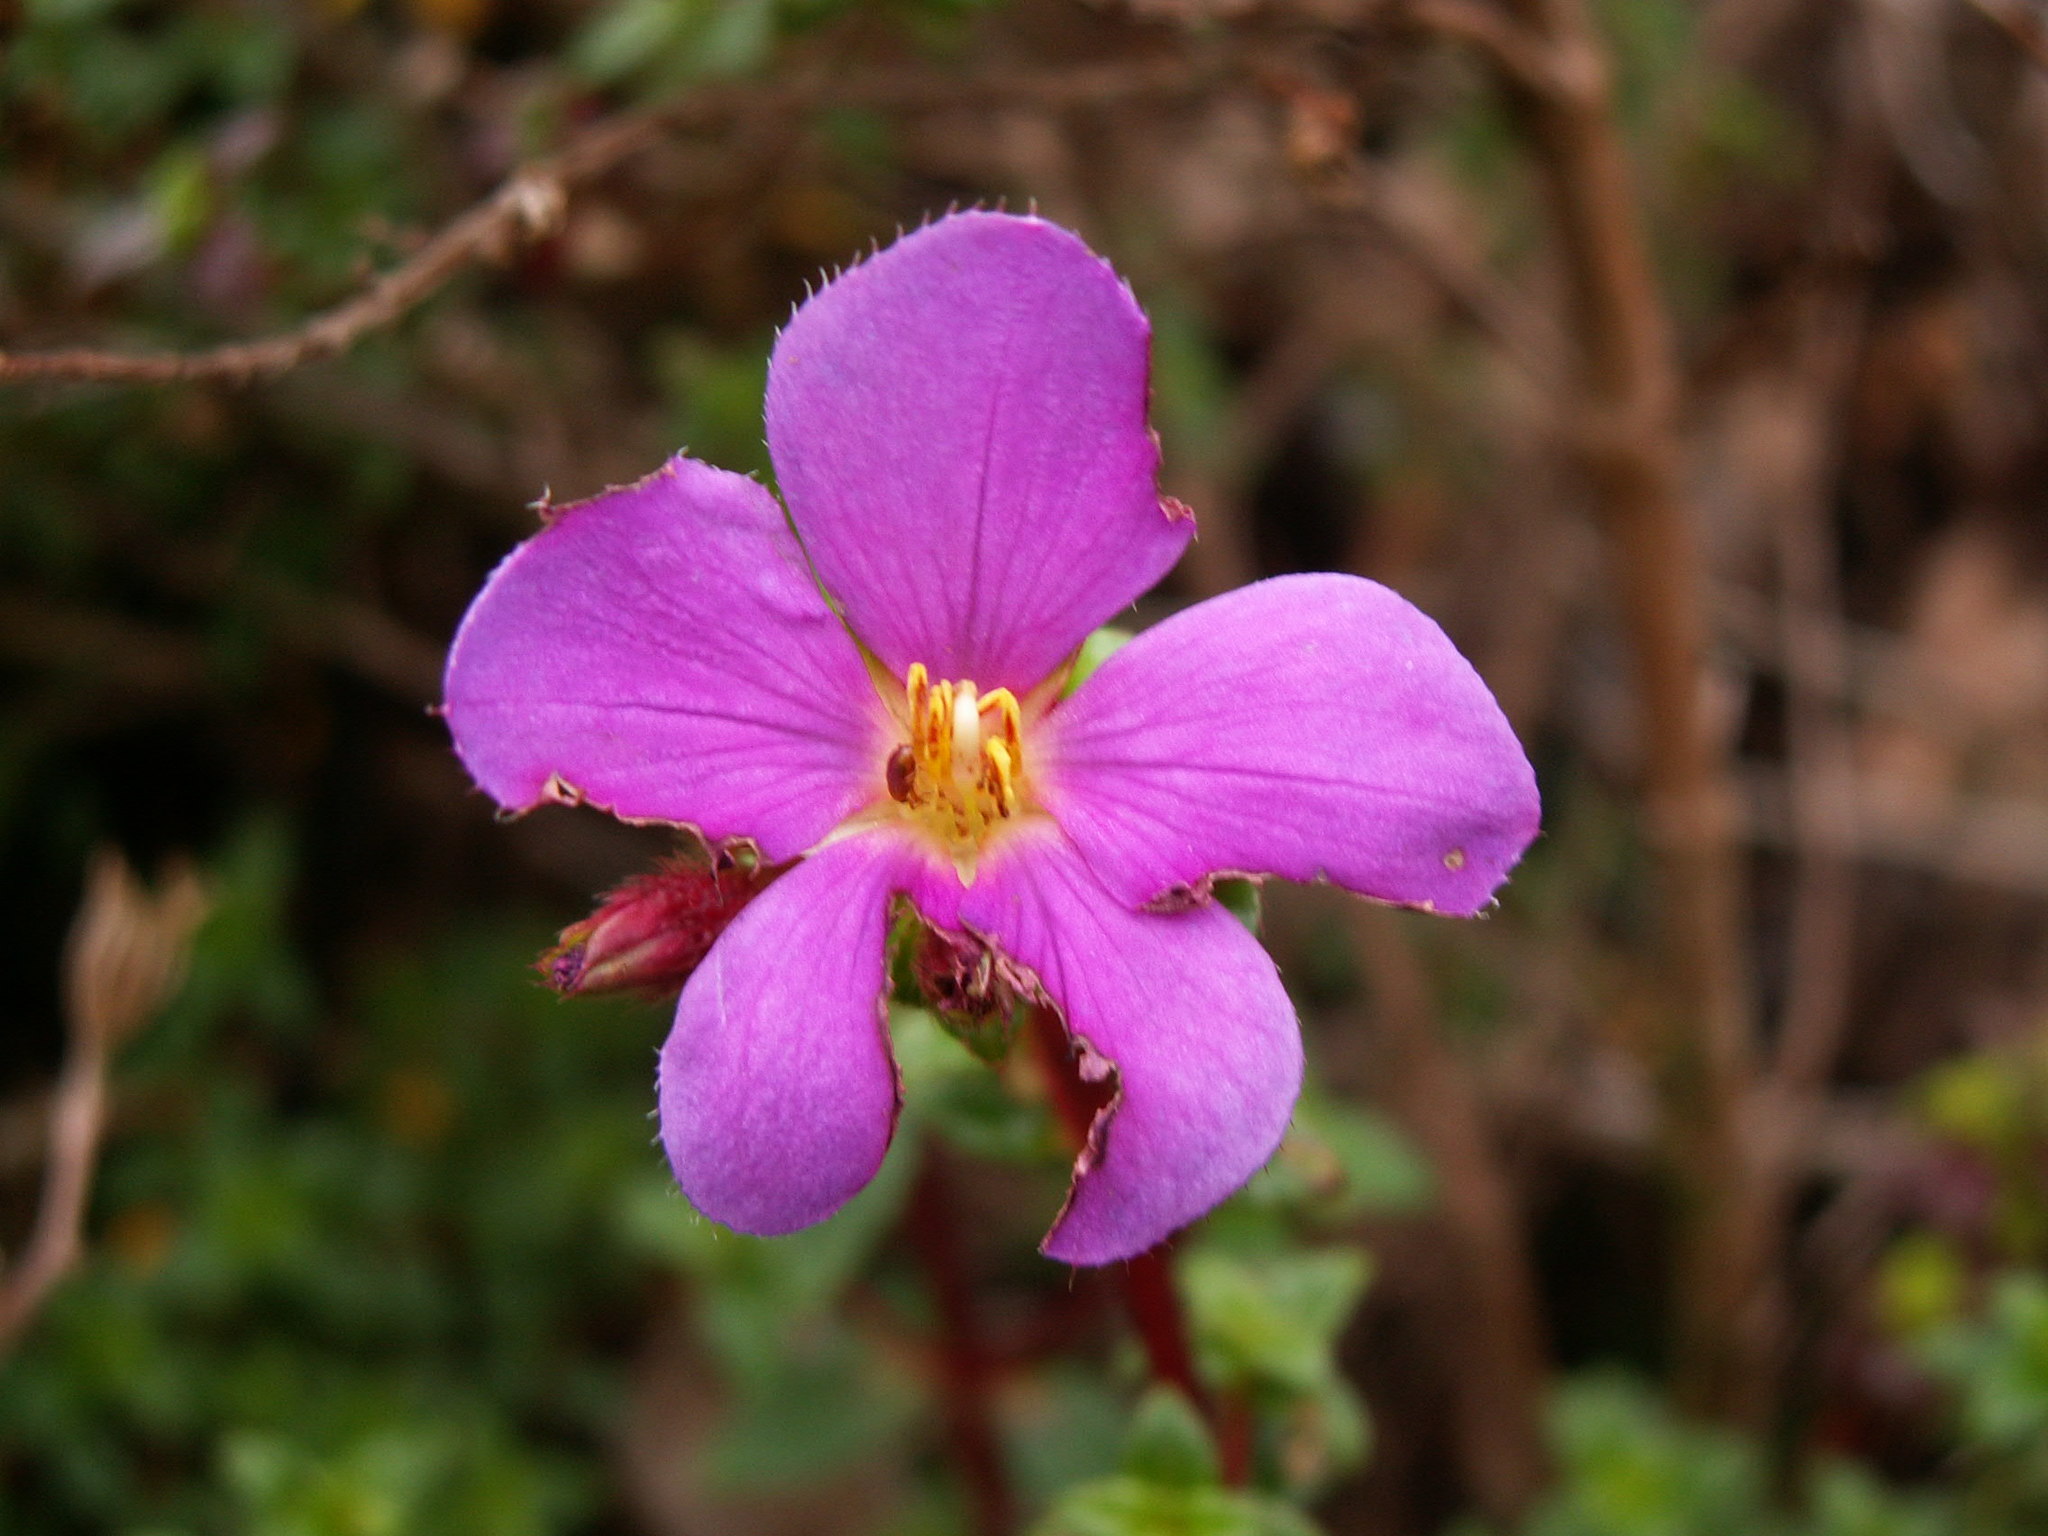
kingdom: Plantae
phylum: Tracheophyta
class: Magnoliopsida
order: Myrtales
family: Melastomataceae
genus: Chaetogastra
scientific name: Chaetogastra ornata
